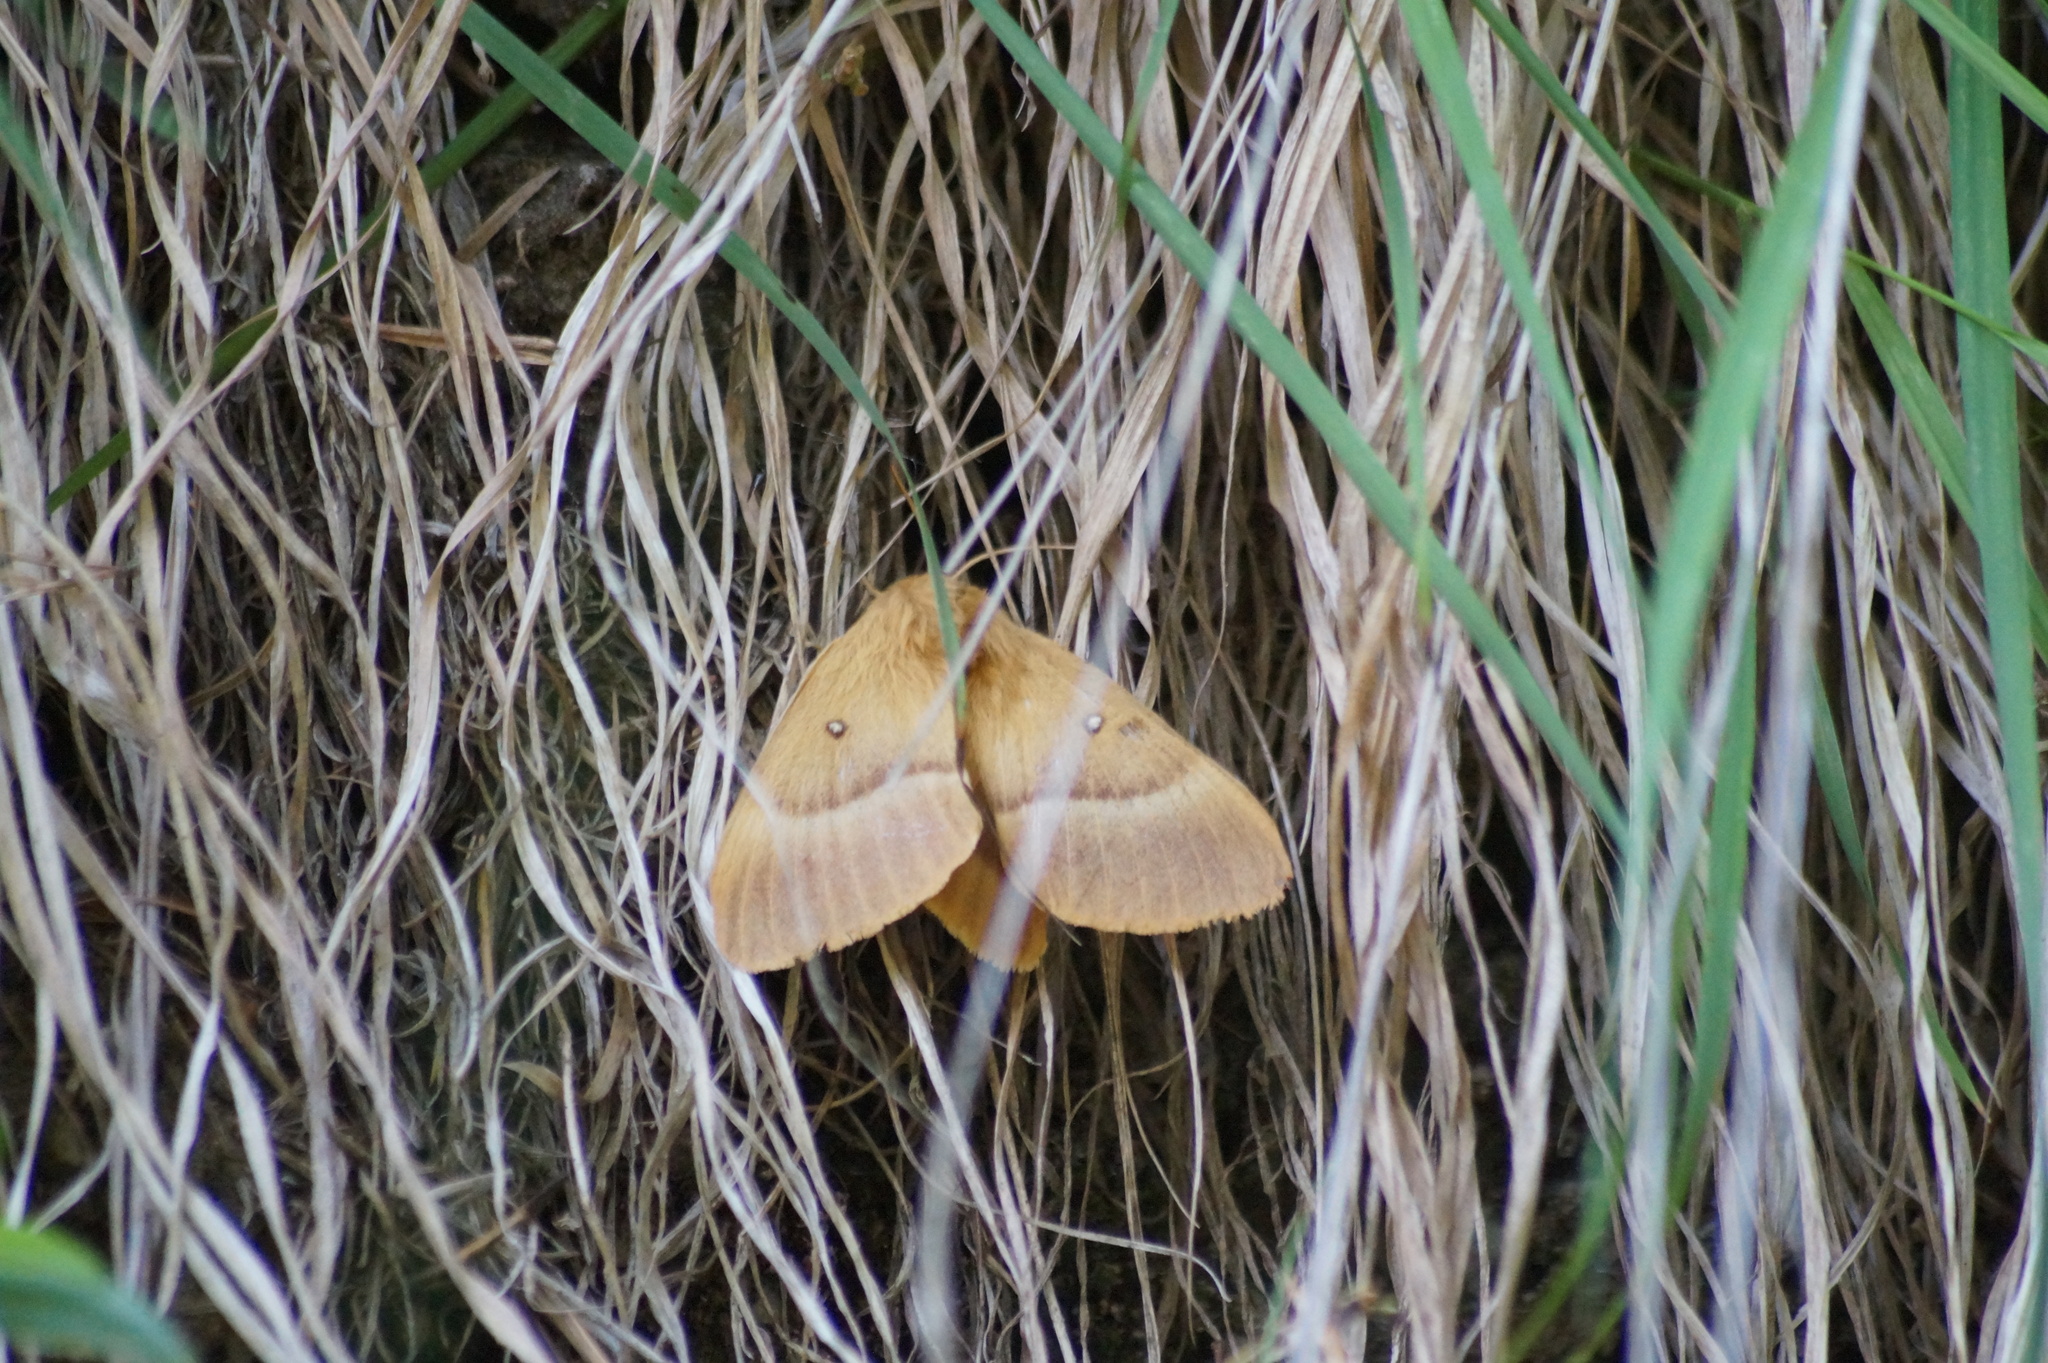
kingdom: Animalia
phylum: Arthropoda
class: Insecta
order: Lepidoptera
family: Lasiocampidae
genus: Lasiocampa
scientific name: Lasiocampa quercus
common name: Oak eggar
